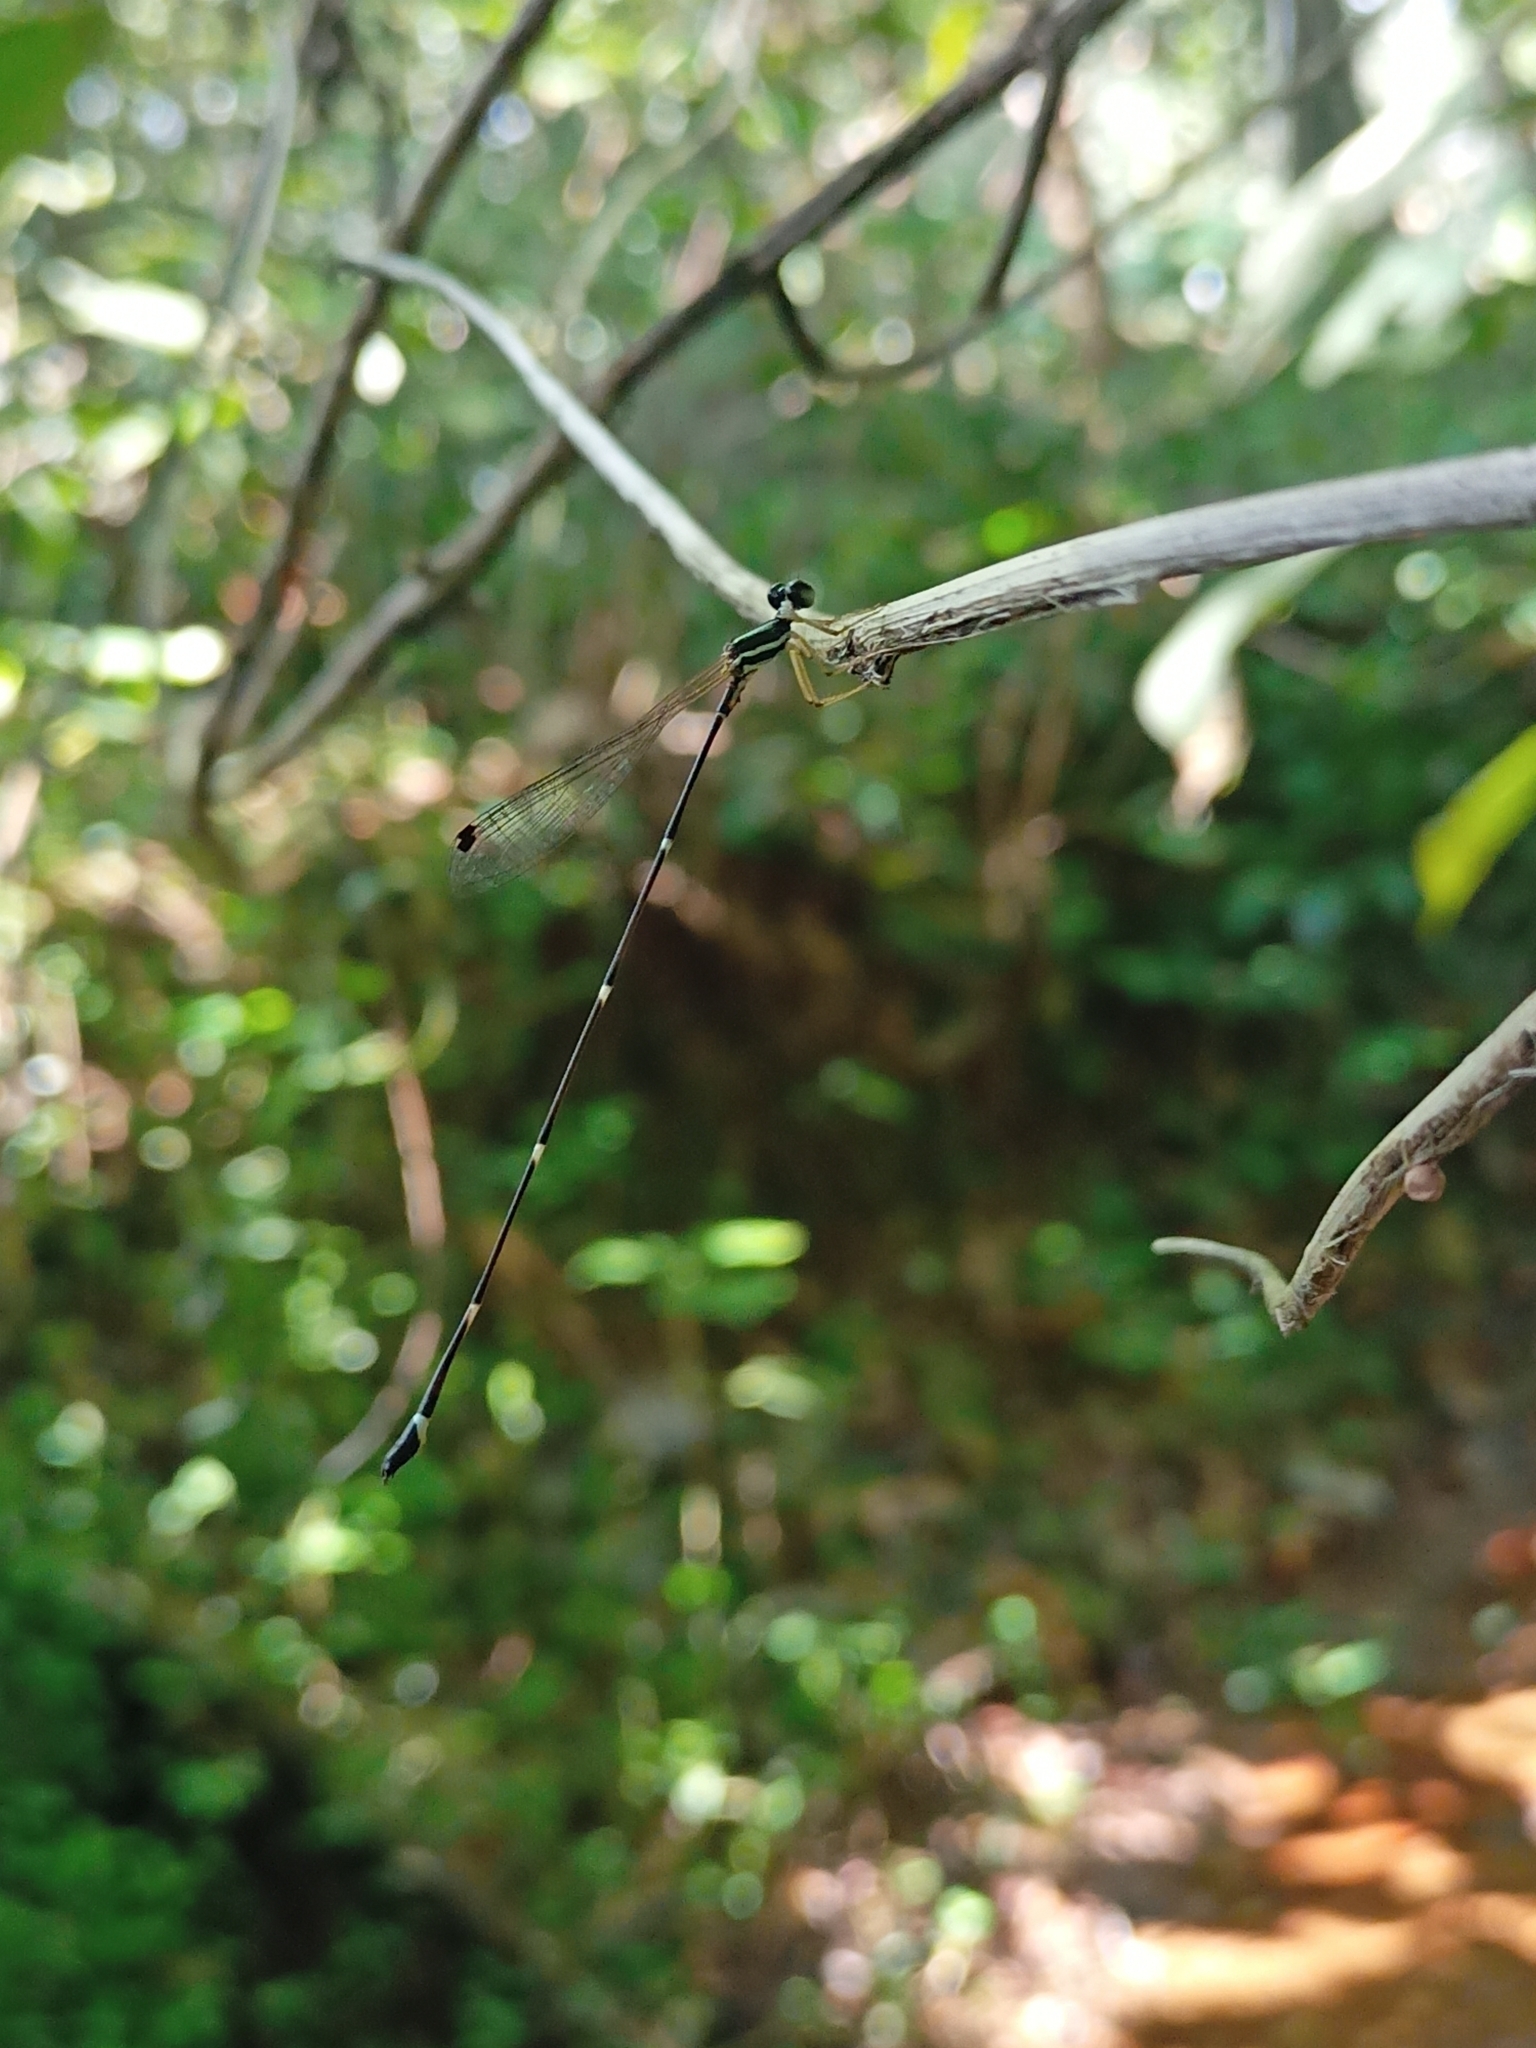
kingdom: Animalia
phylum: Arthropoda
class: Insecta
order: Odonata
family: Platystictidae
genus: Protosticta
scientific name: Protosticta gravelyi
